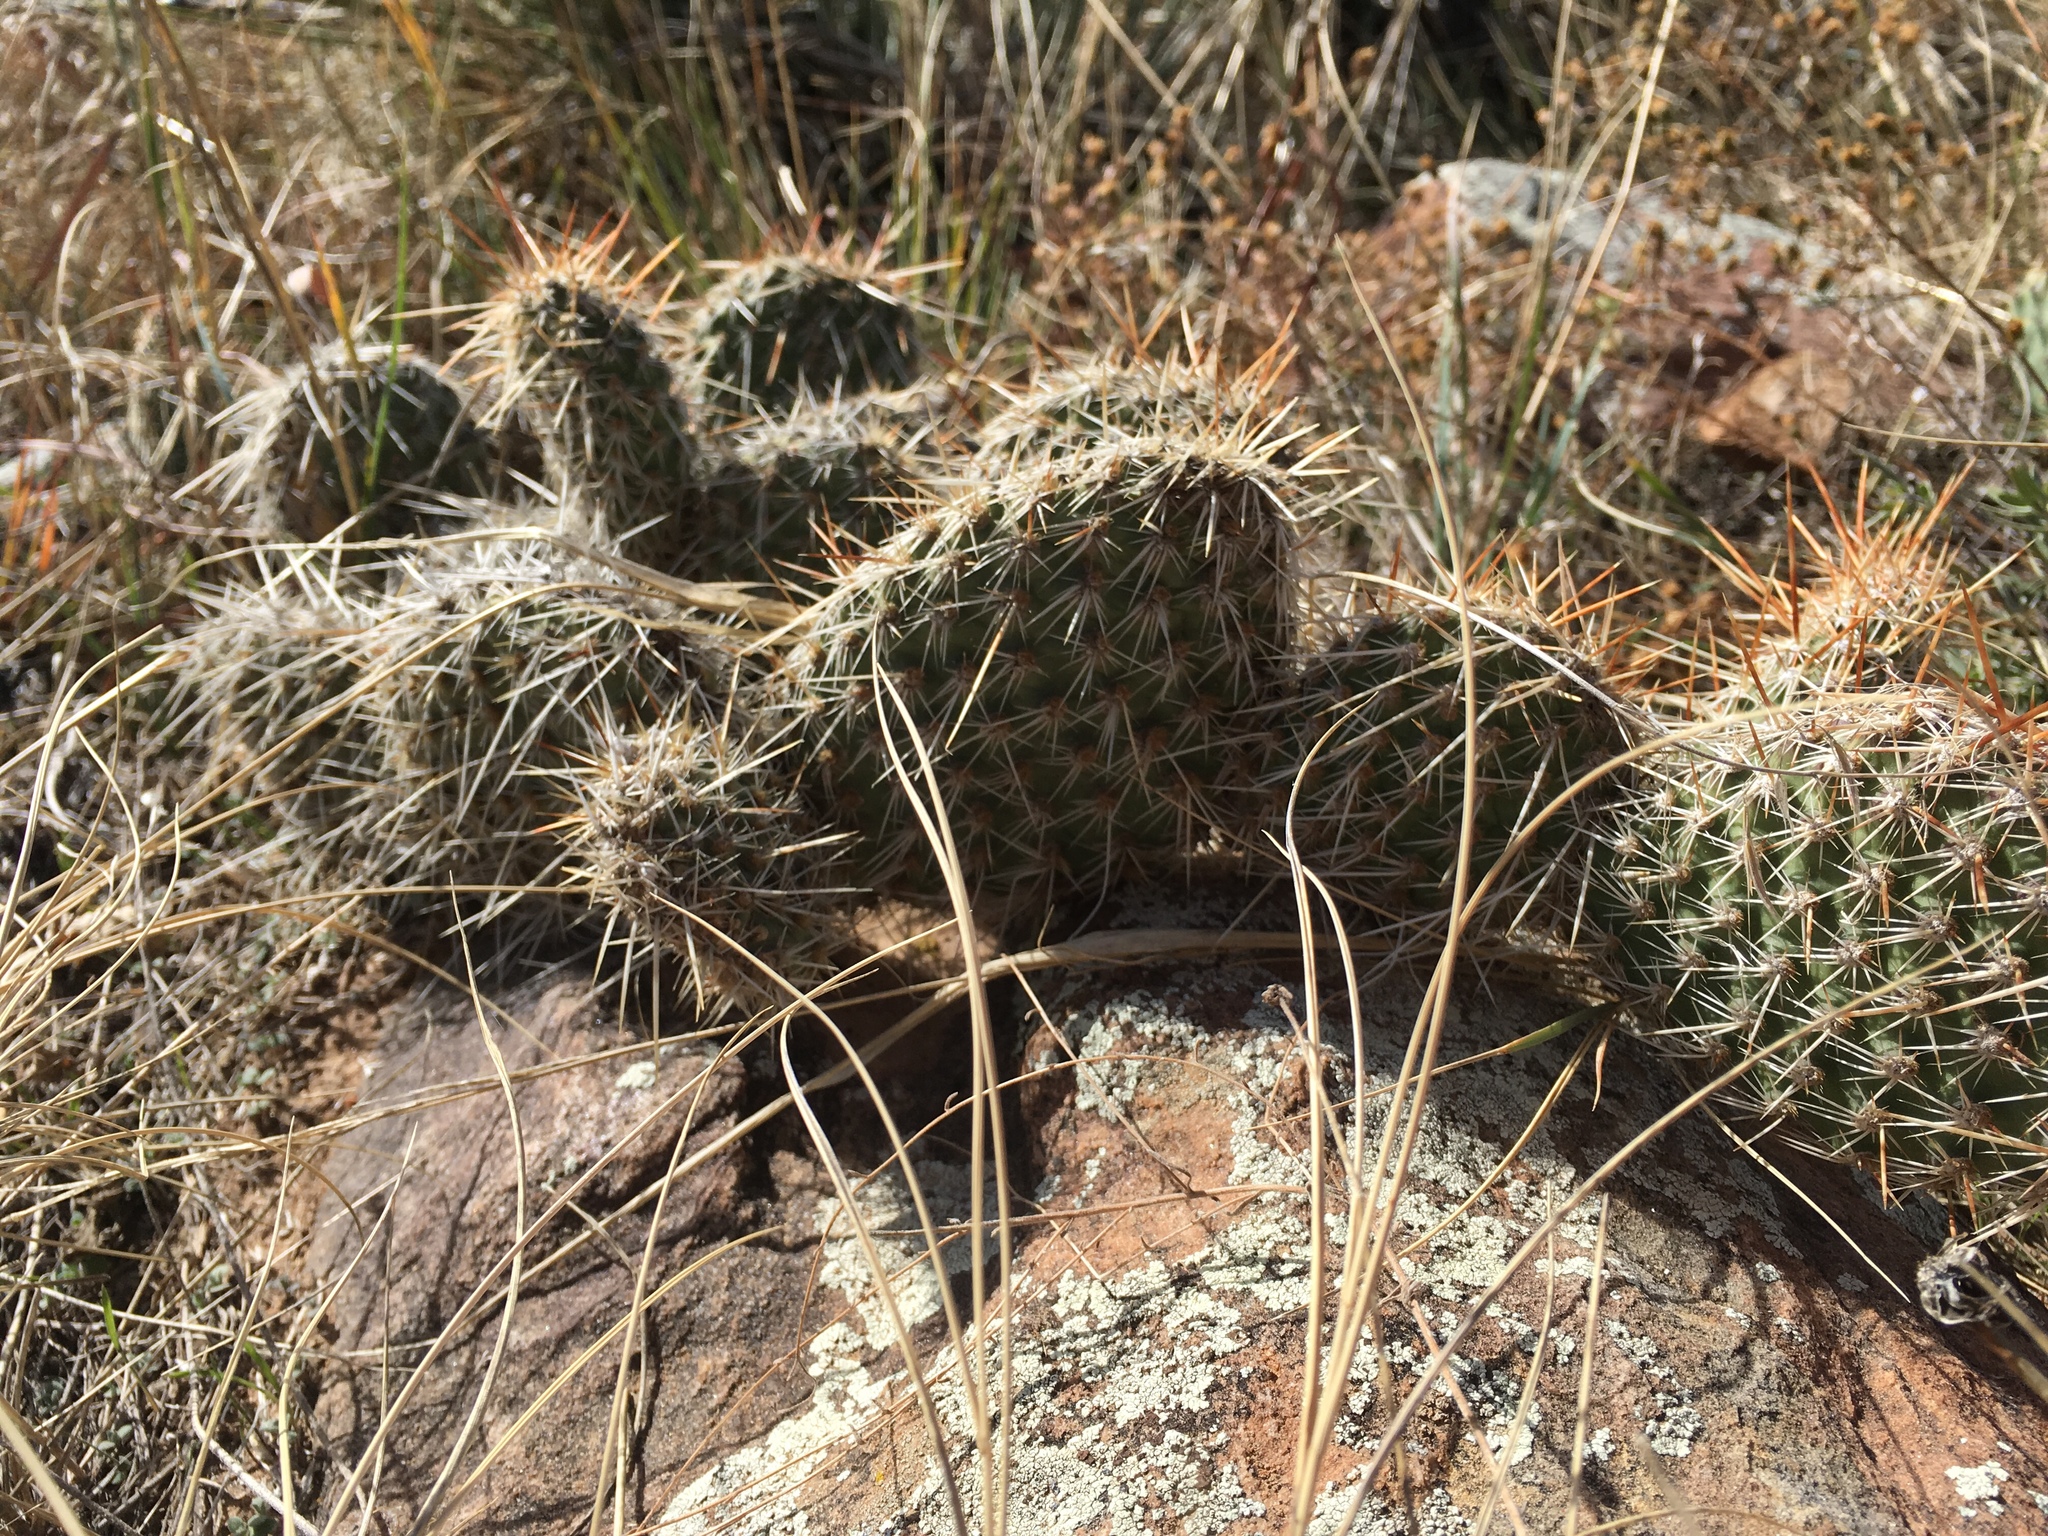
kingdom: Plantae
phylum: Tracheophyta
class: Magnoliopsida
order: Caryophyllales
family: Cactaceae
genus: Opuntia
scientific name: Opuntia polyacantha
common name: Plains prickly-pear
